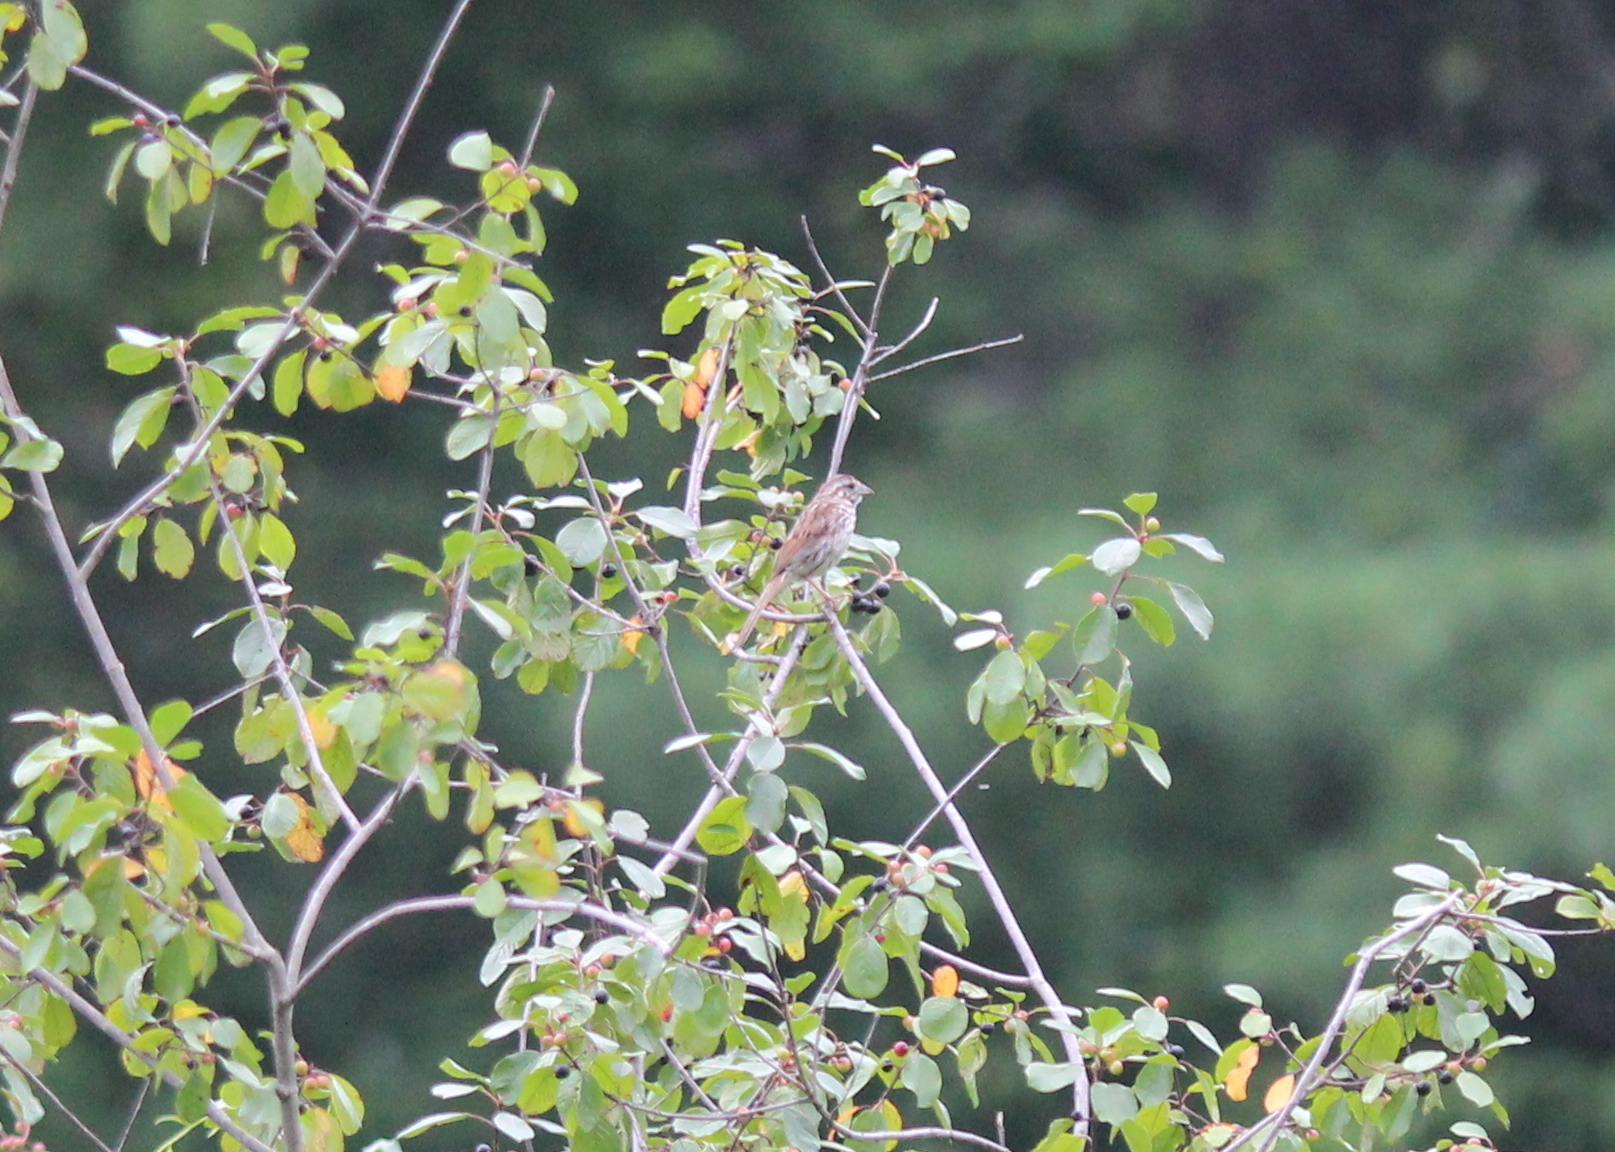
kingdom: Animalia
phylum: Chordata
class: Aves
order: Passeriformes
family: Passerellidae
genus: Melospiza
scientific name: Melospiza melodia
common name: Song sparrow
